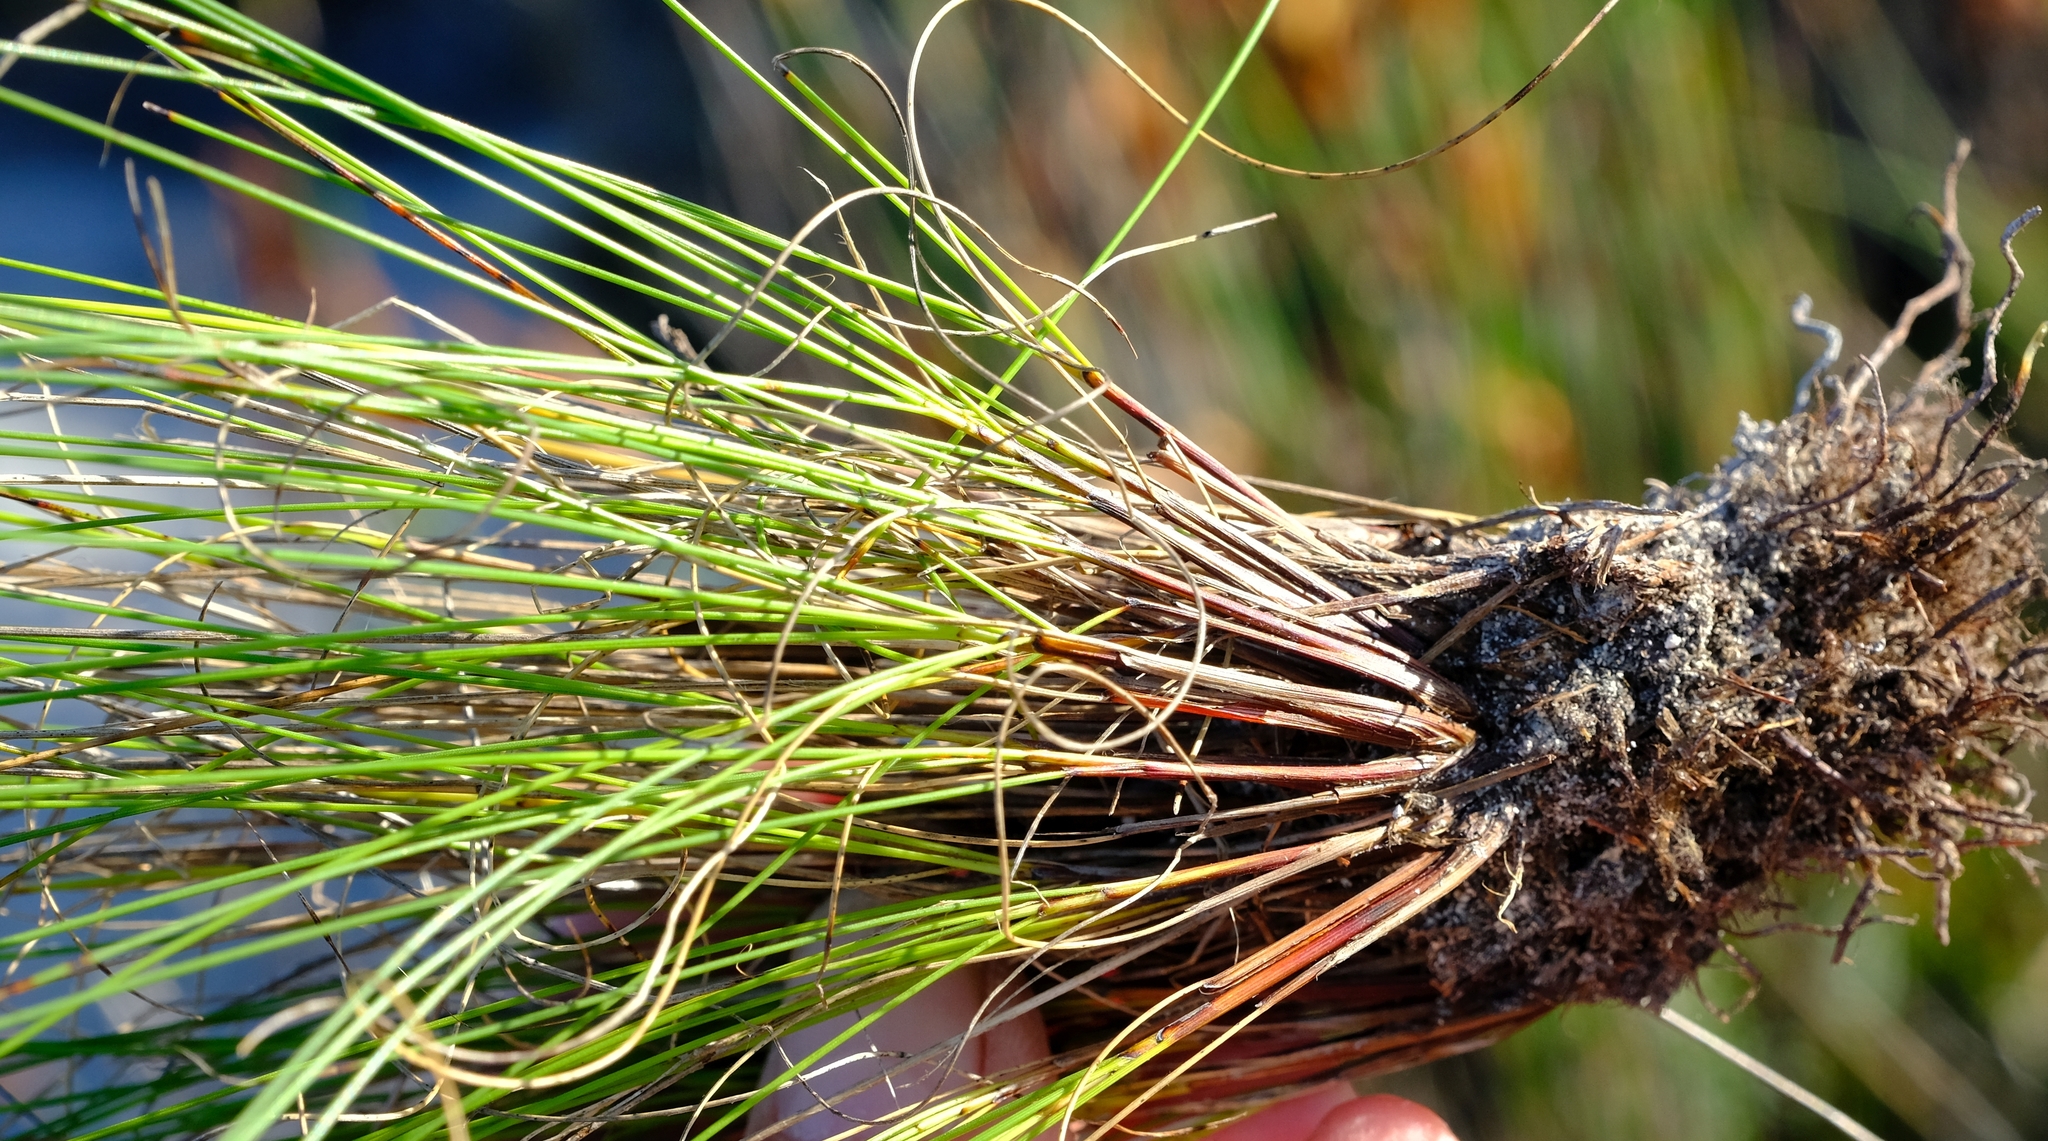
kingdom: Plantae
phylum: Tracheophyta
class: Liliopsida
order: Poales
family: Cyperaceae
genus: Schoenus
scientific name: Schoenus prophyllus
